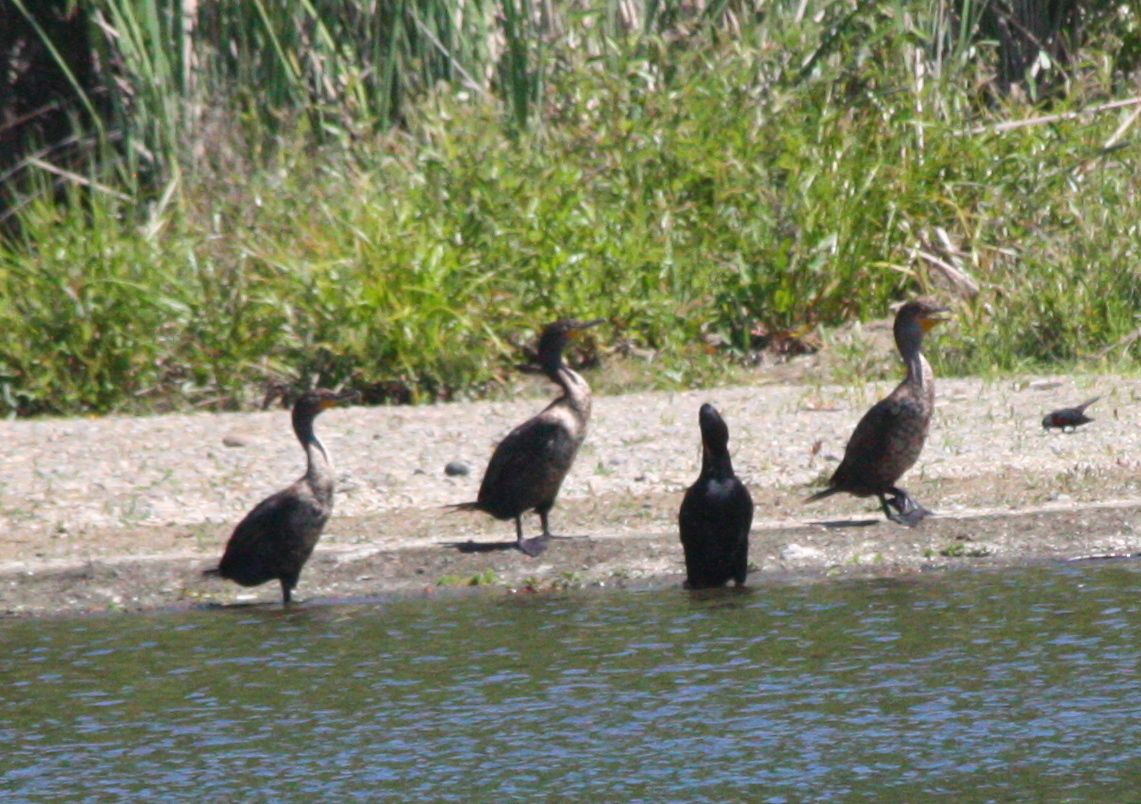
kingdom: Animalia
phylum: Chordata
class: Aves
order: Suliformes
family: Phalacrocoracidae
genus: Phalacrocorax
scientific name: Phalacrocorax auritus
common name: Double-crested cormorant
